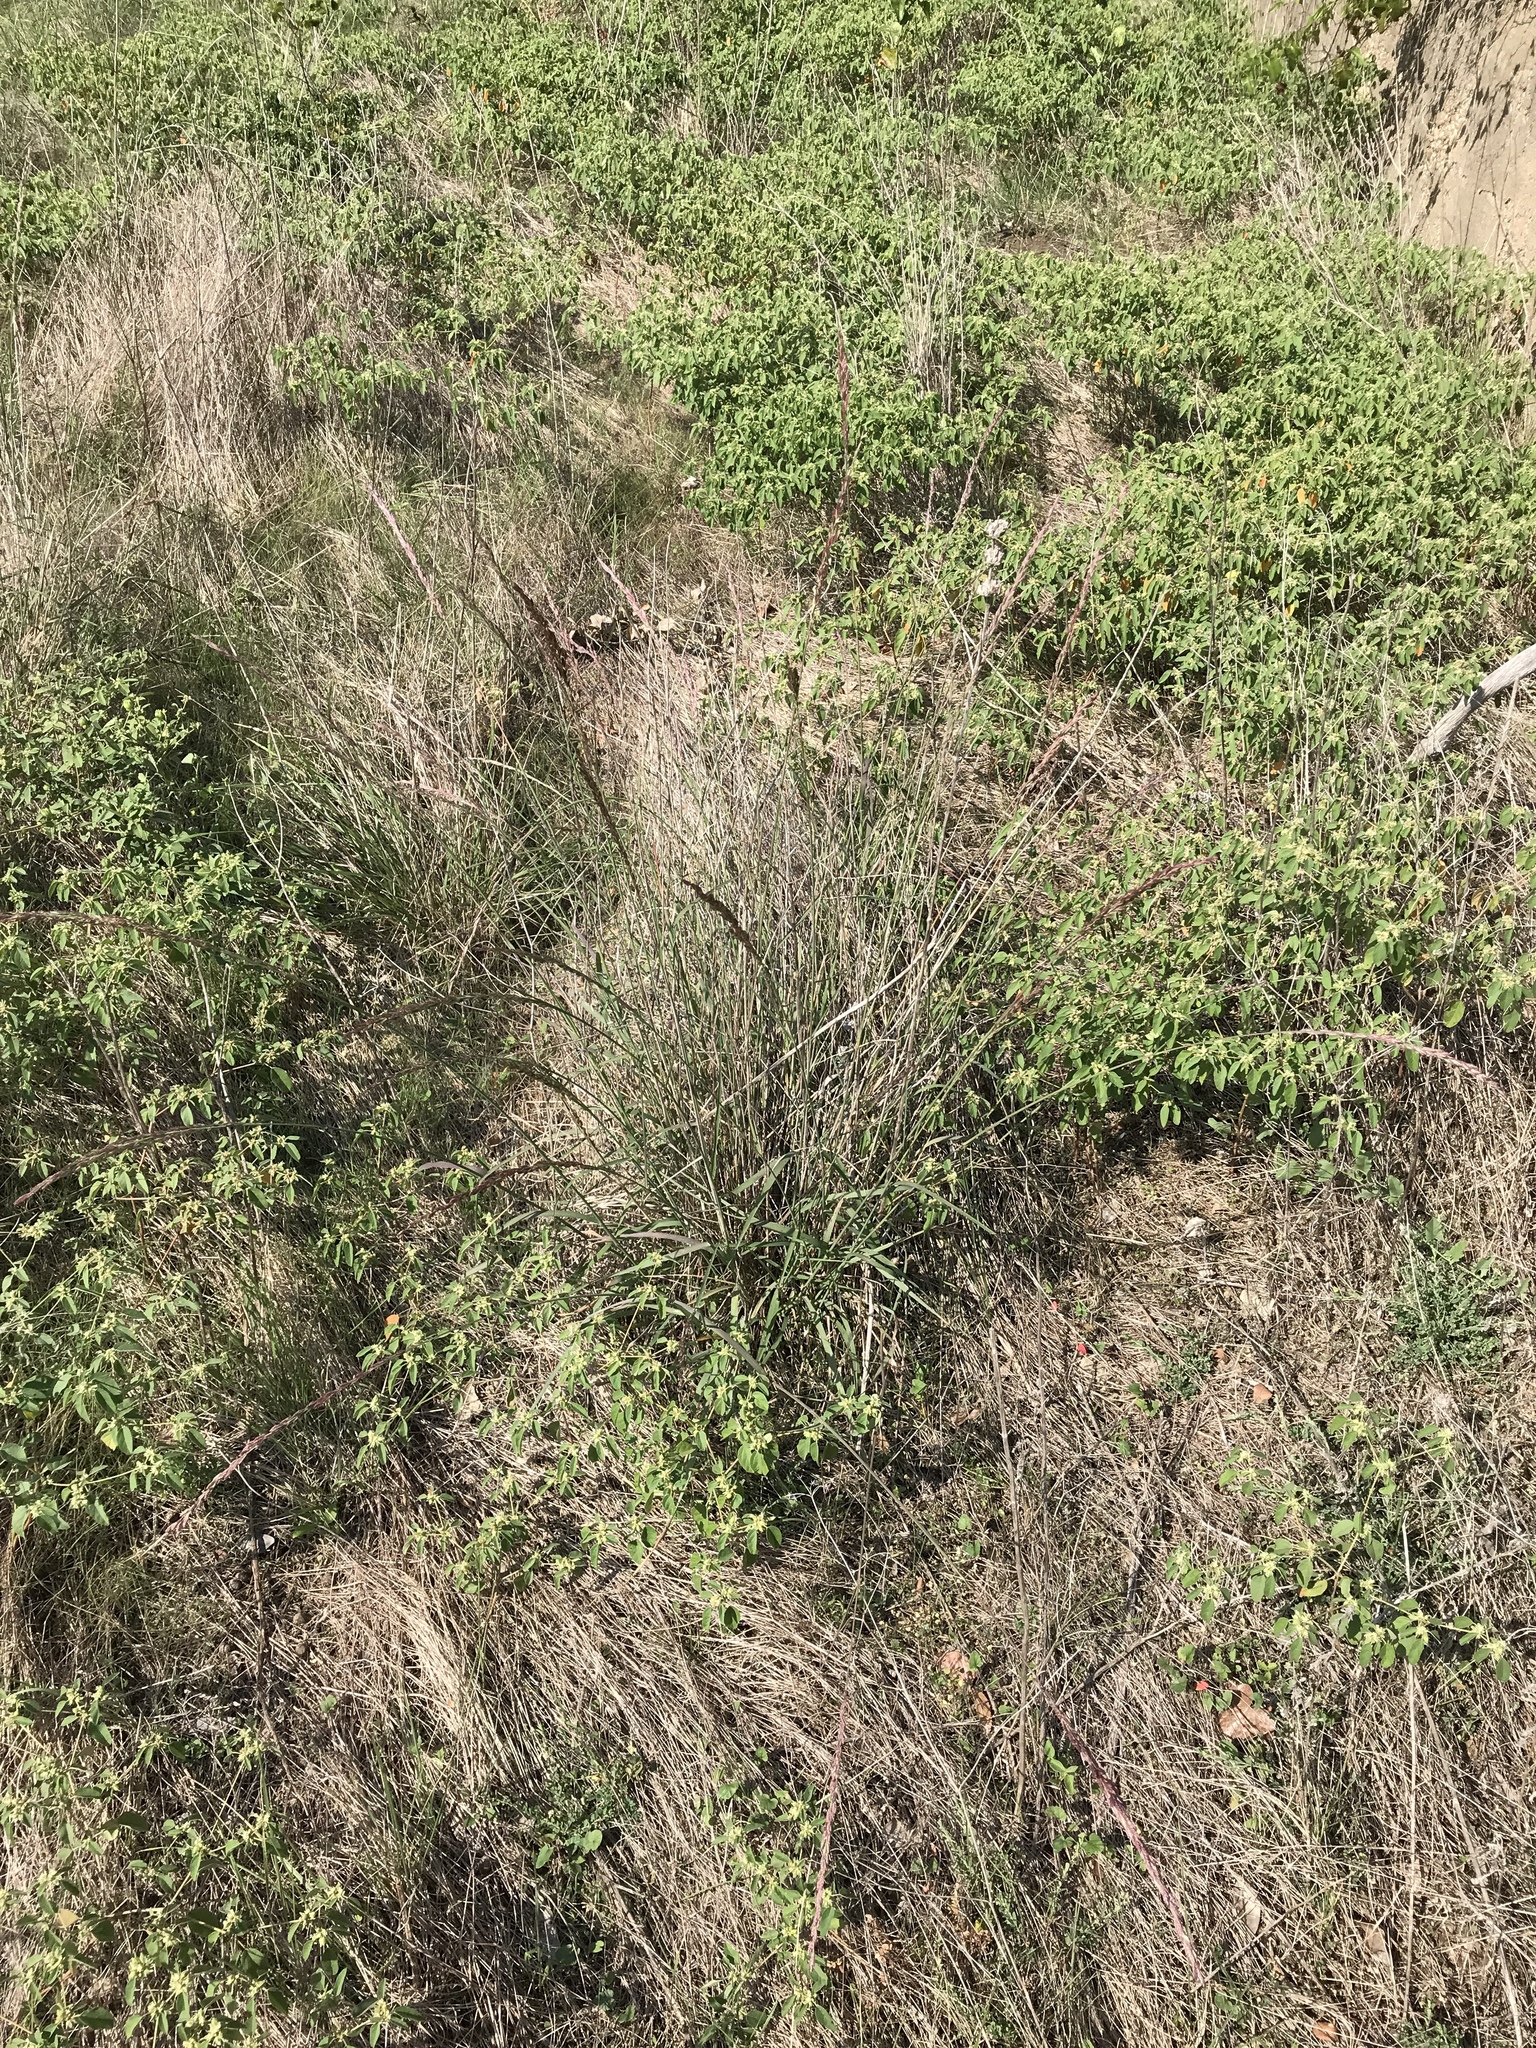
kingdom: Plantae
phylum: Tracheophyta
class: Liliopsida
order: Poales
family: Poaceae
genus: Tridentopsis
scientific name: Tridentopsis mutica
